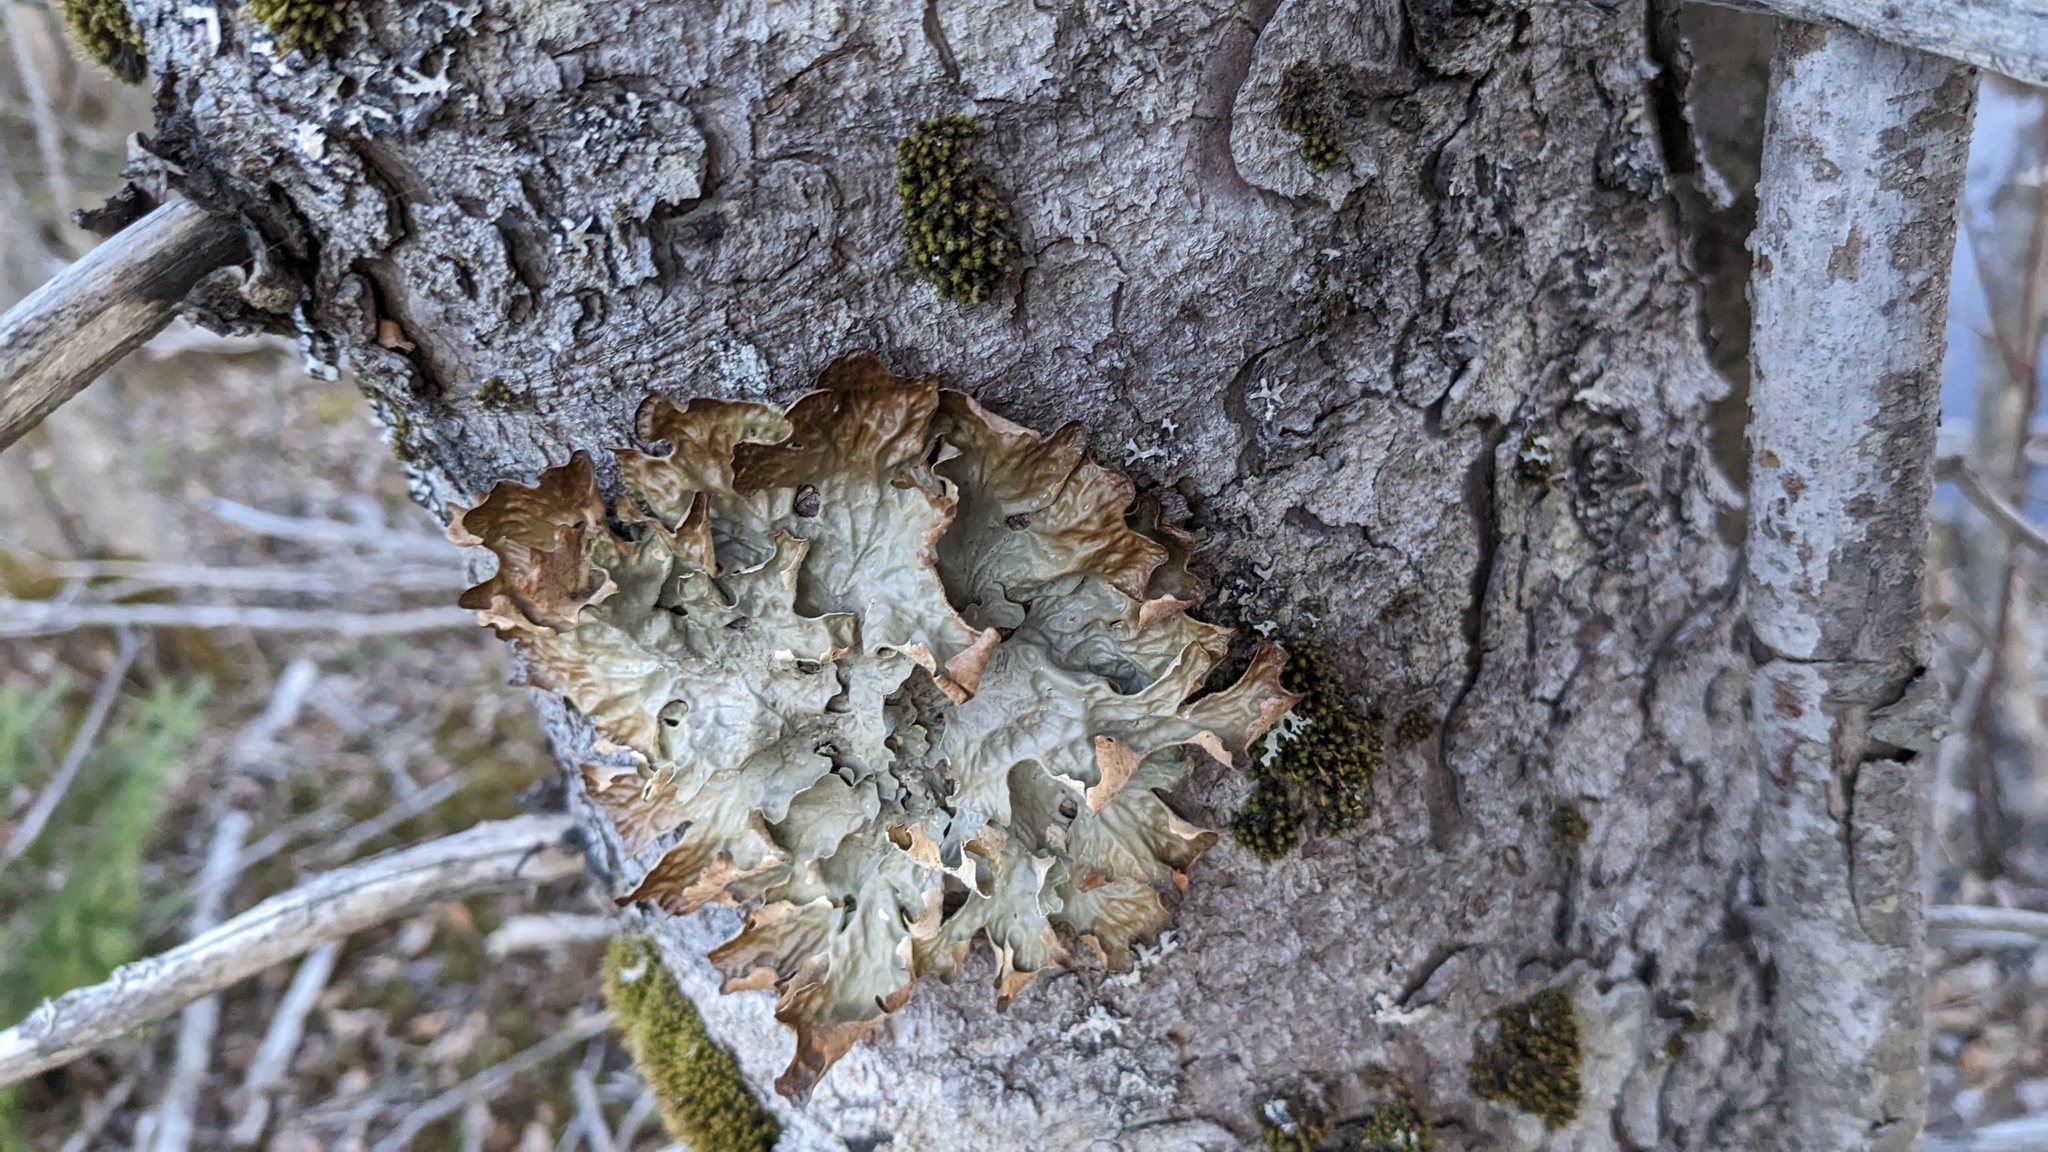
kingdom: Fungi
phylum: Ascomycota
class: Lecanoromycetes
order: Peltigerales
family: Lobariaceae
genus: Lobaria
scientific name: Lobaria pulmonaria
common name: Lungwort
